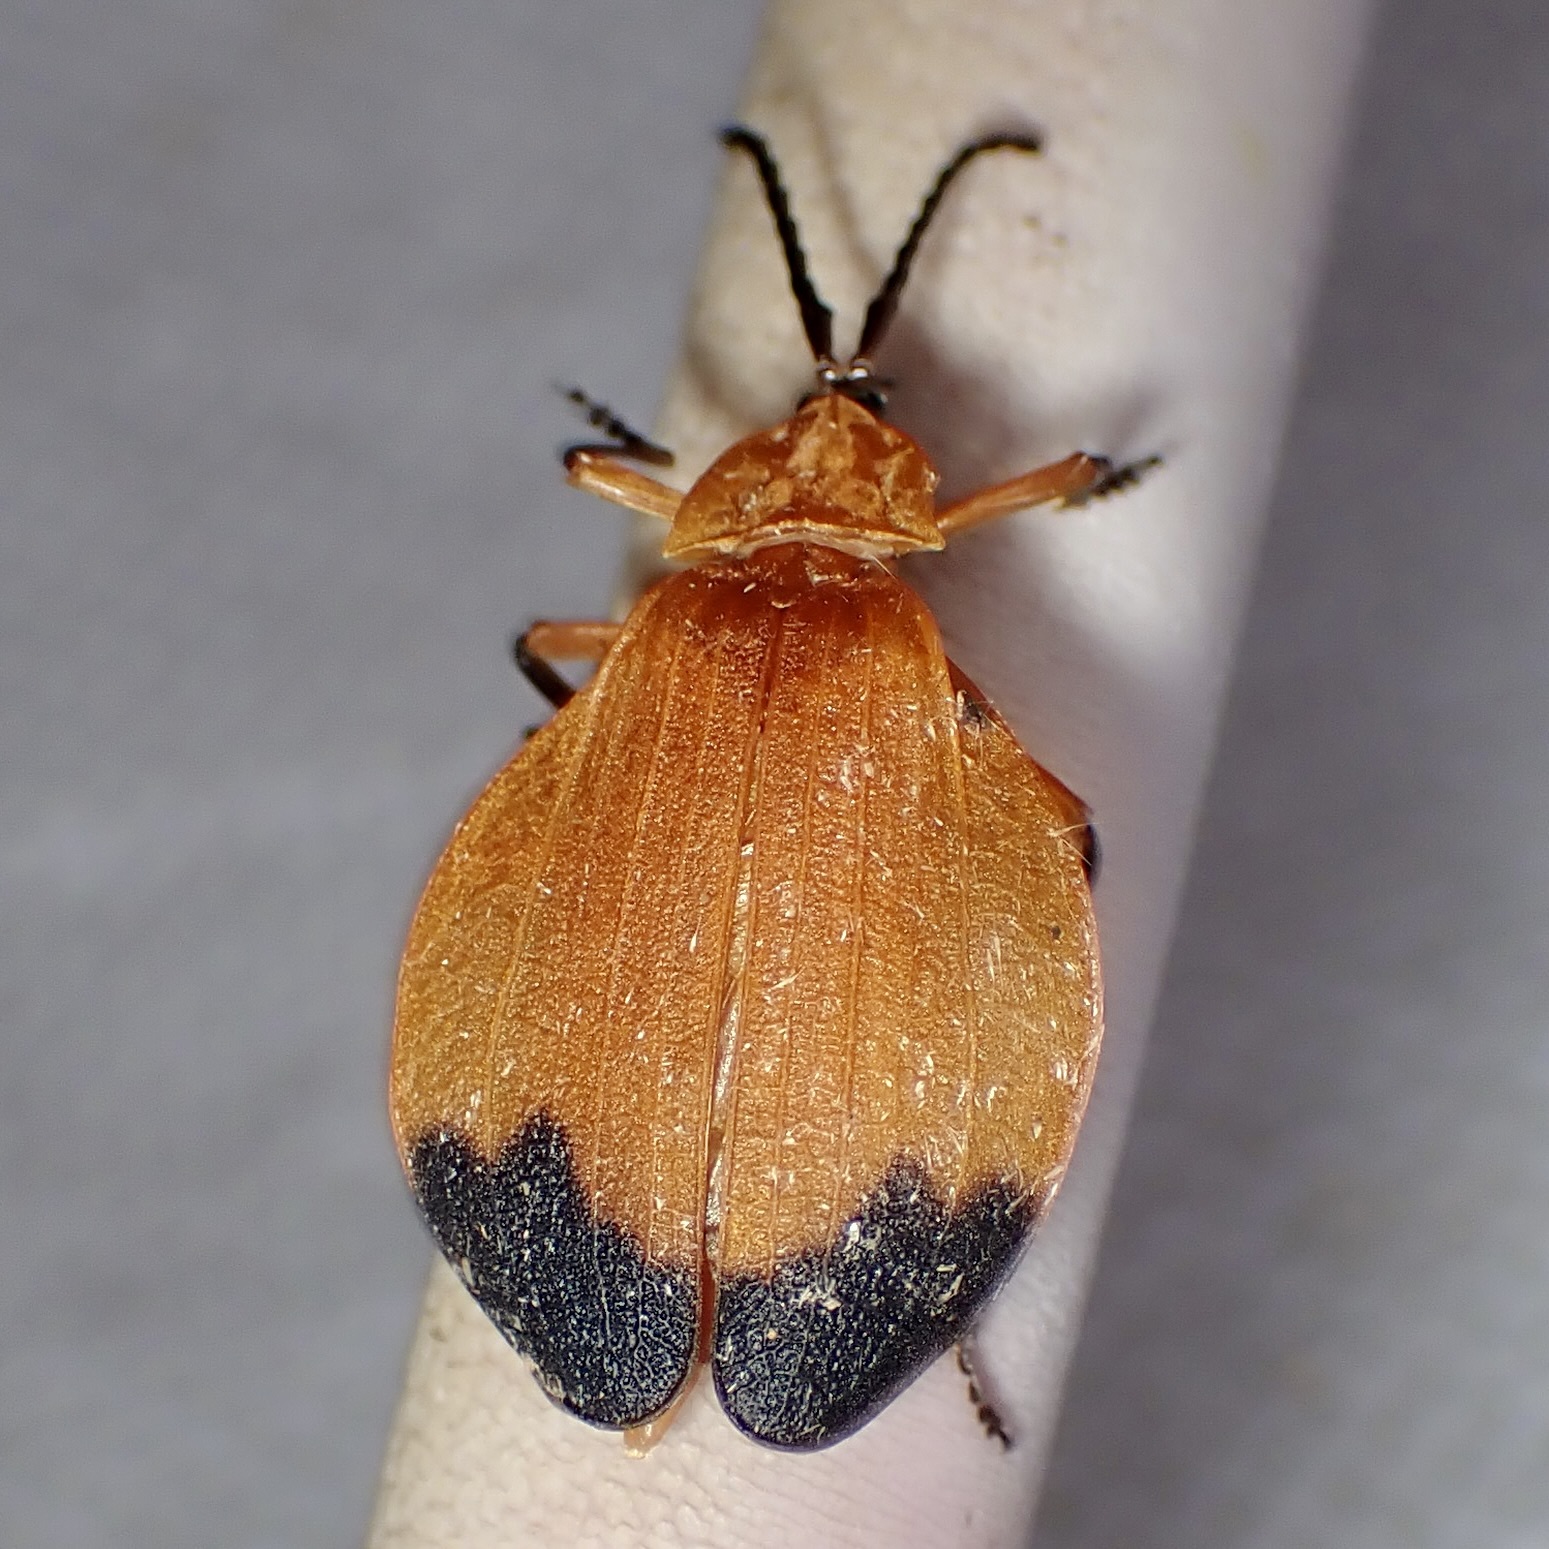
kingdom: Animalia
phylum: Arthropoda
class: Insecta
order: Coleoptera
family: Lycidae
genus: Lycus
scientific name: Lycus fernandezi
